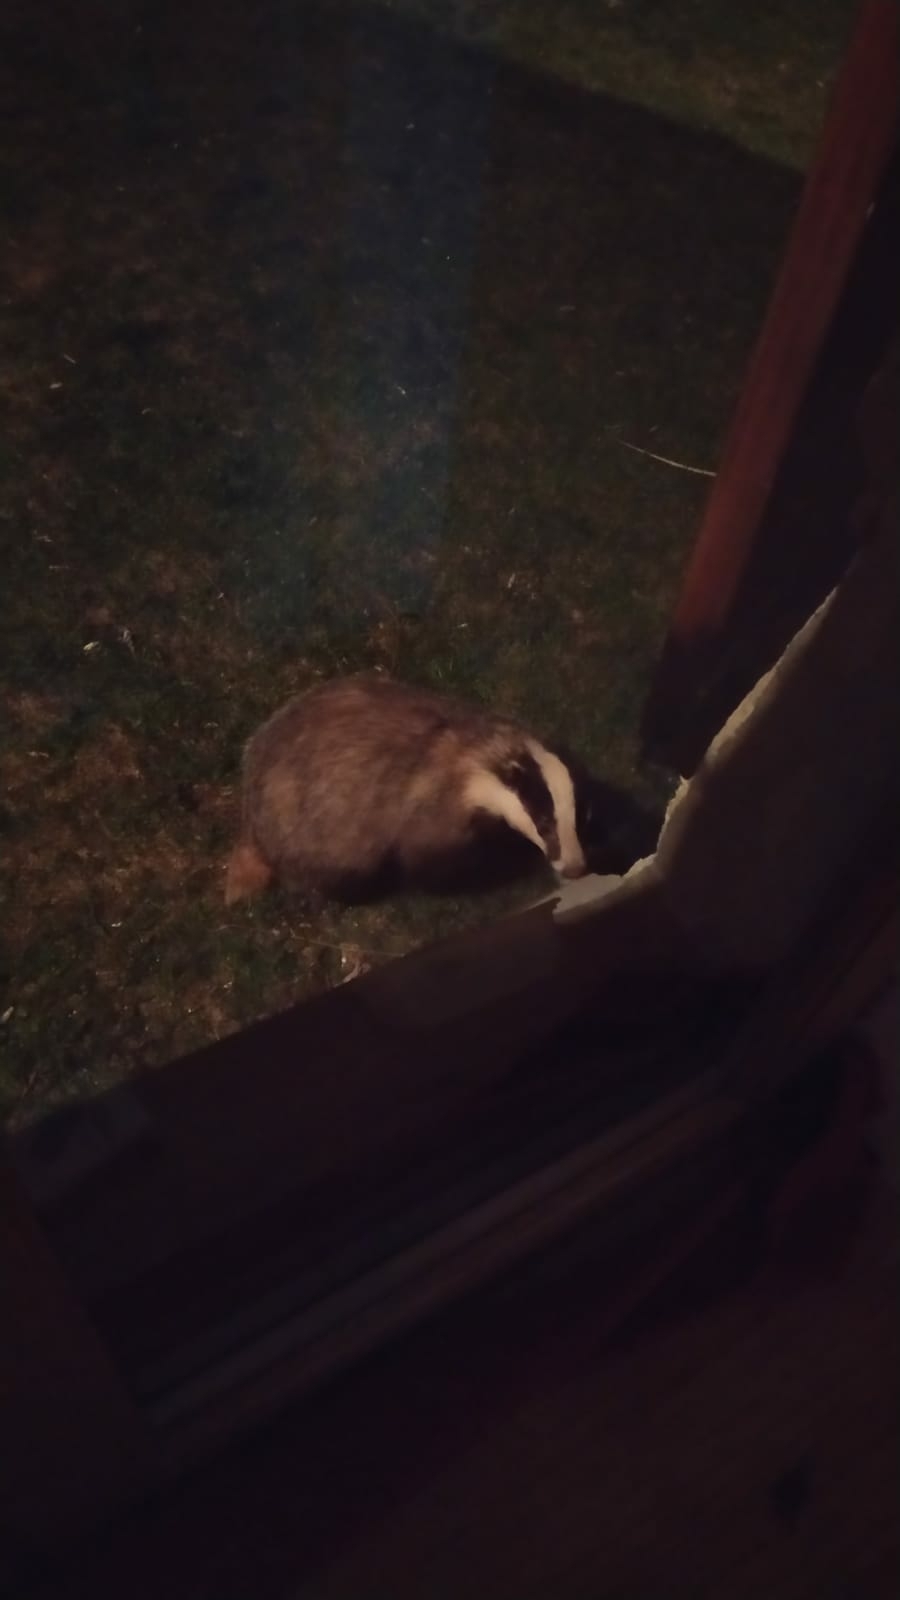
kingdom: Animalia
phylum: Chordata
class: Mammalia
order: Carnivora
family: Mustelidae
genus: Meles
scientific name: Meles meles
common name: Eurasian badger
